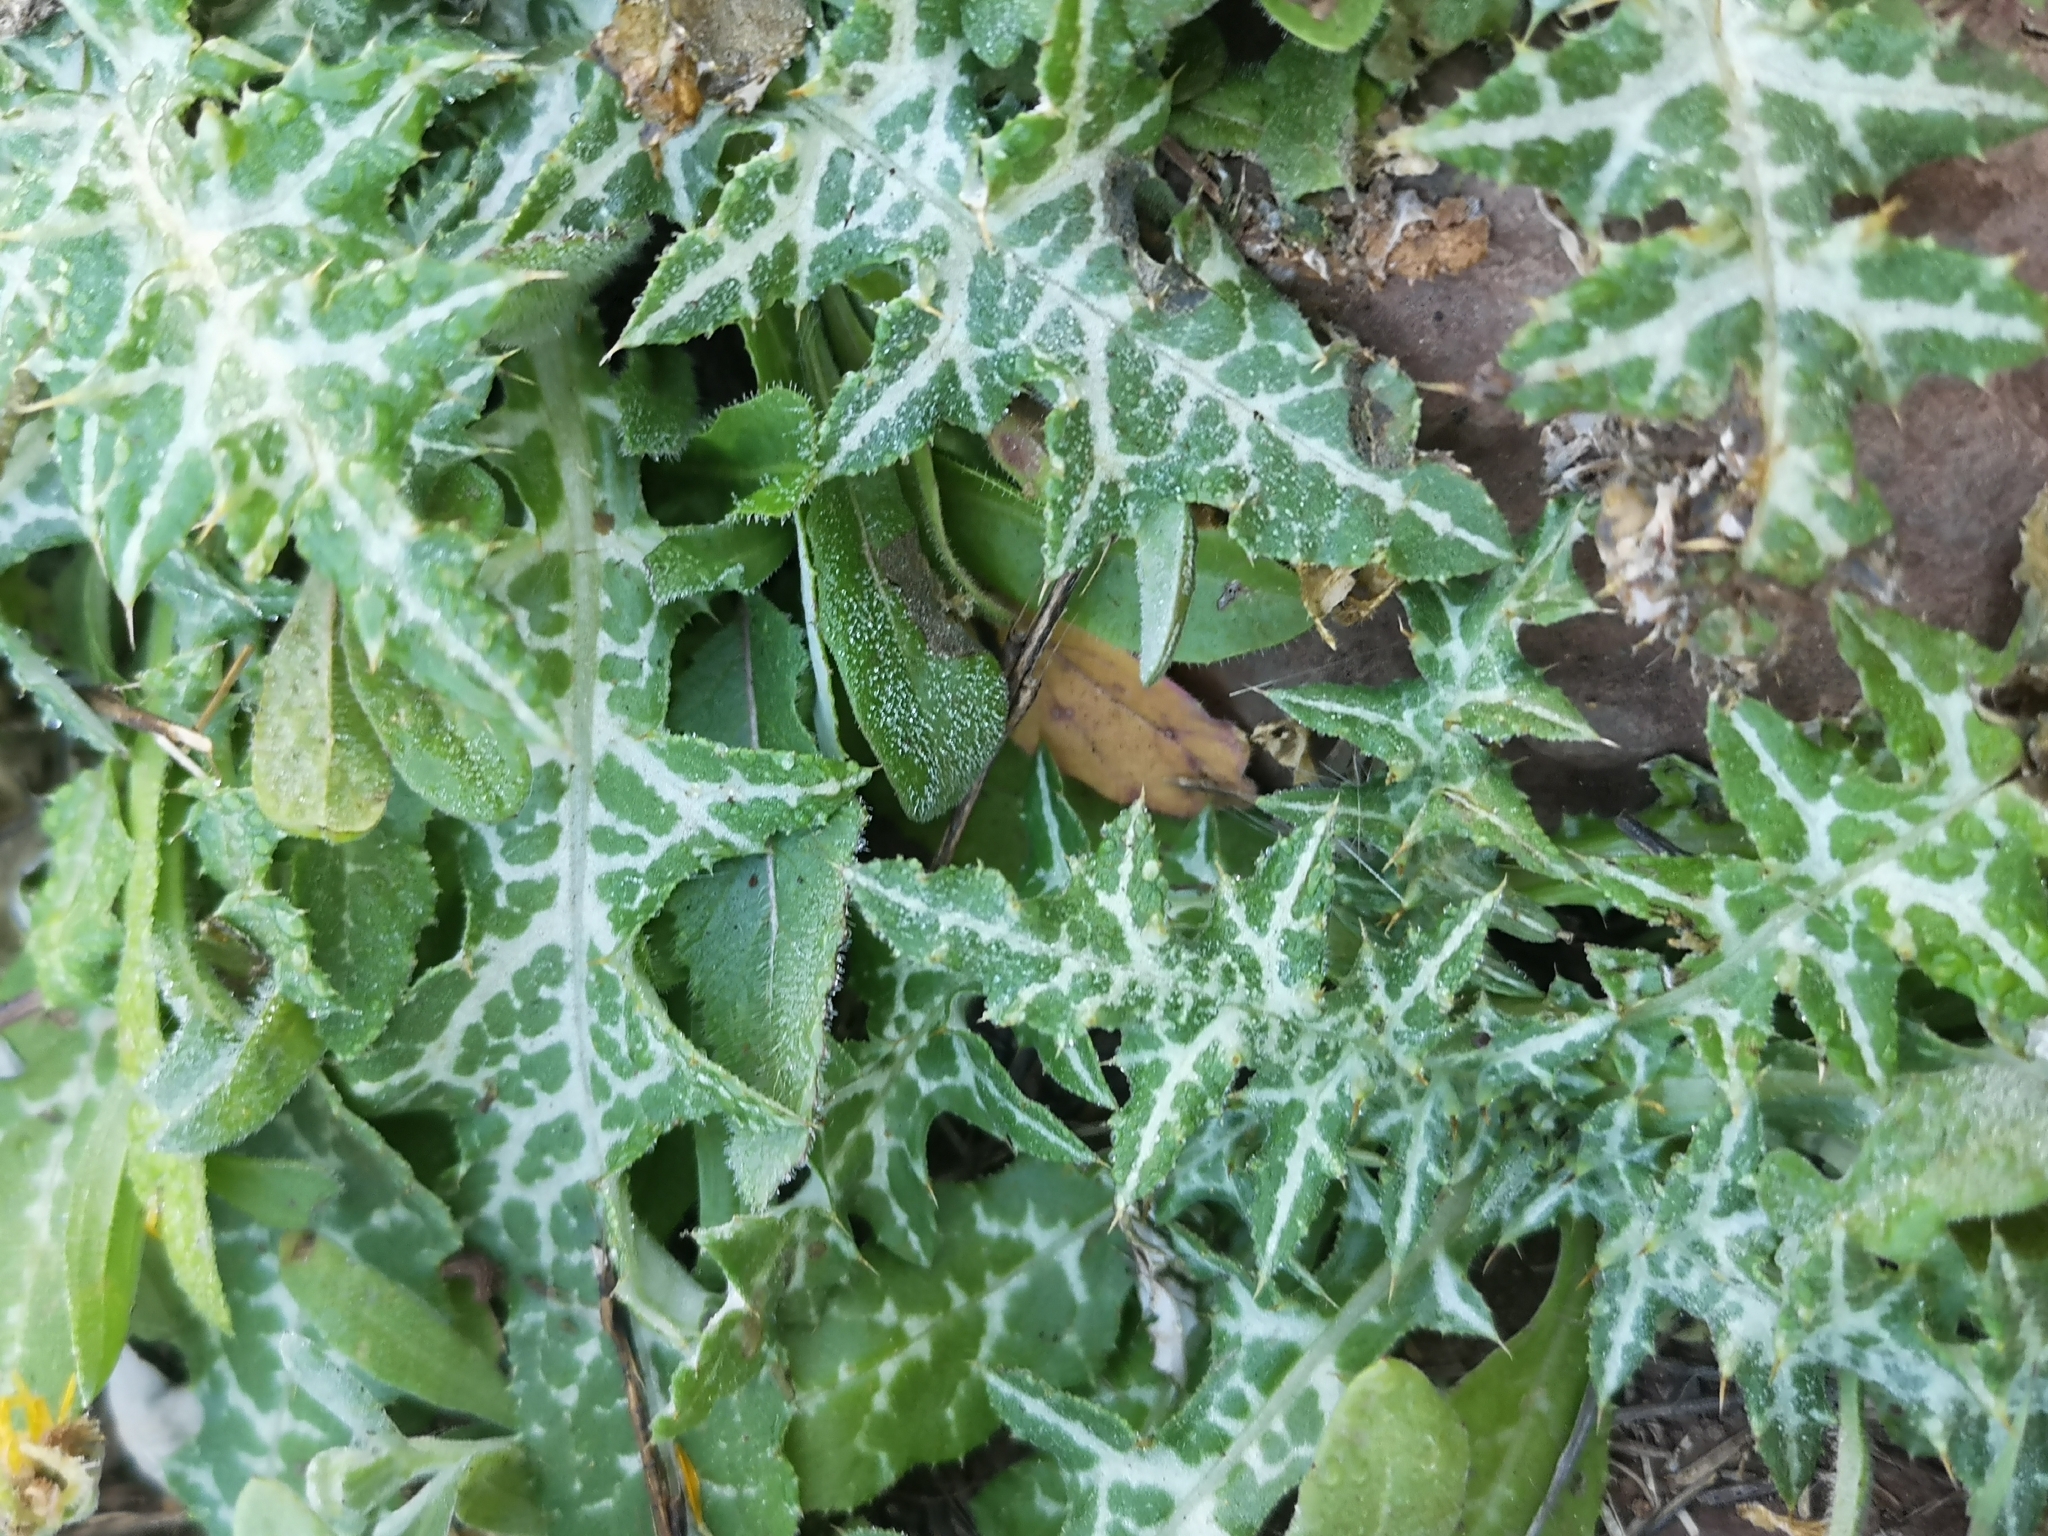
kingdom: Plantae
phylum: Tracheophyta
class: Magnoliopsida
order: Asterales
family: Asteraceae
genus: Galactites
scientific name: Galactites tomentosa
